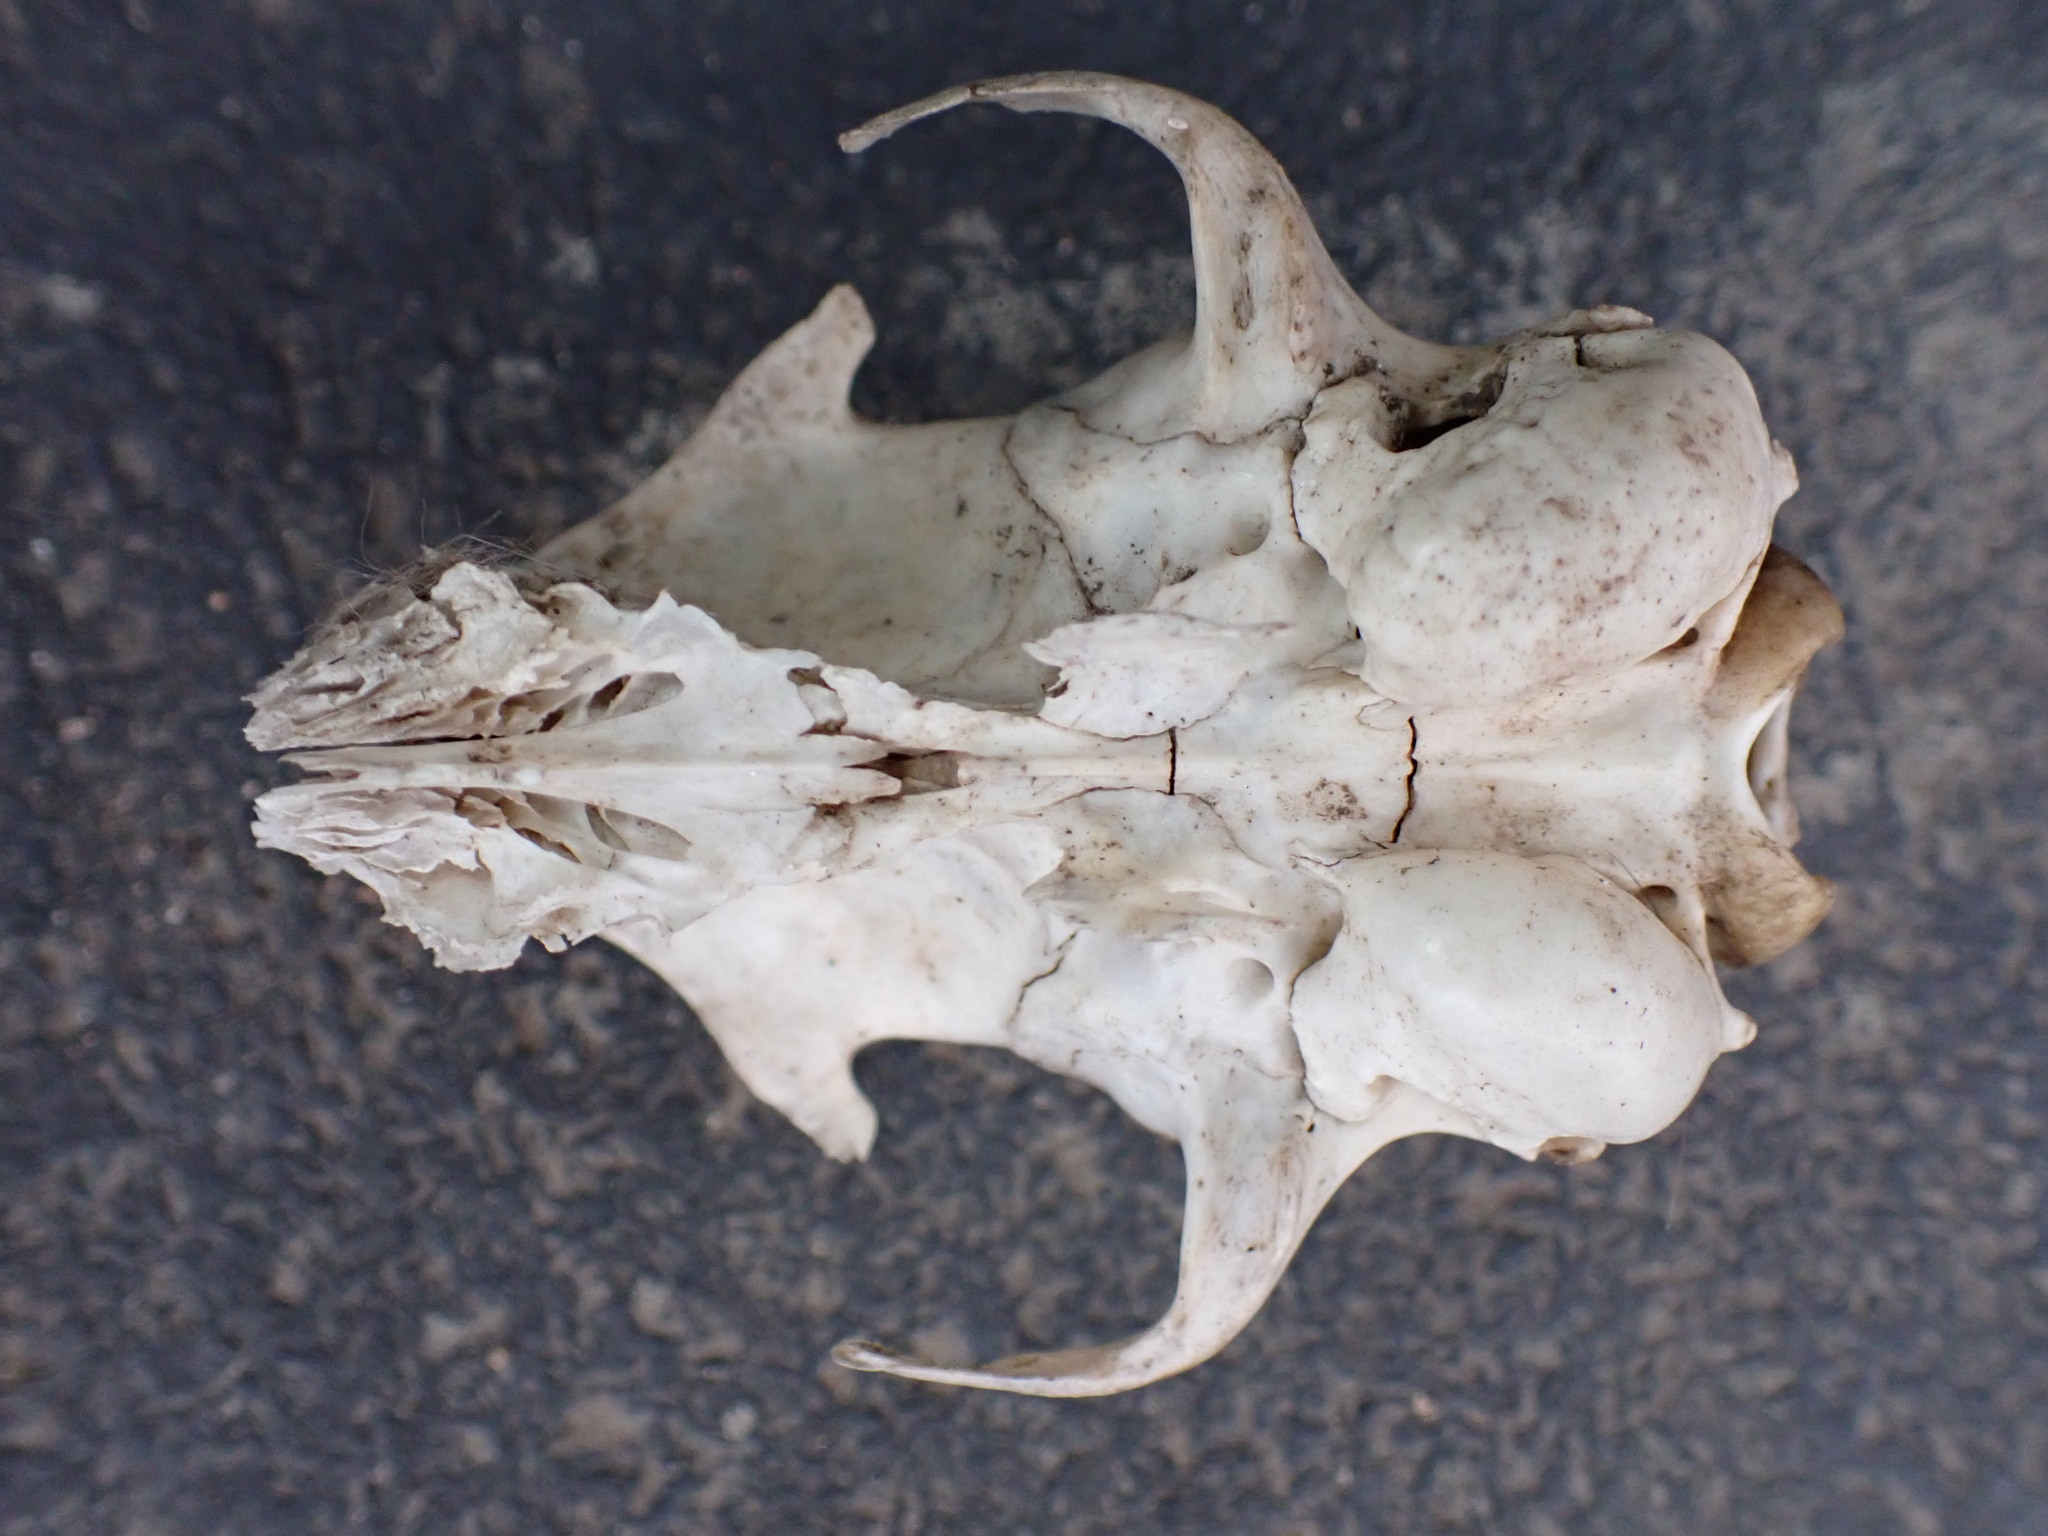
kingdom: Animalia
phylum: Chordata
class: Mammalia
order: Carnivora
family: Felidae
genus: Felis
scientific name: Felis catus
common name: Domestic cat
